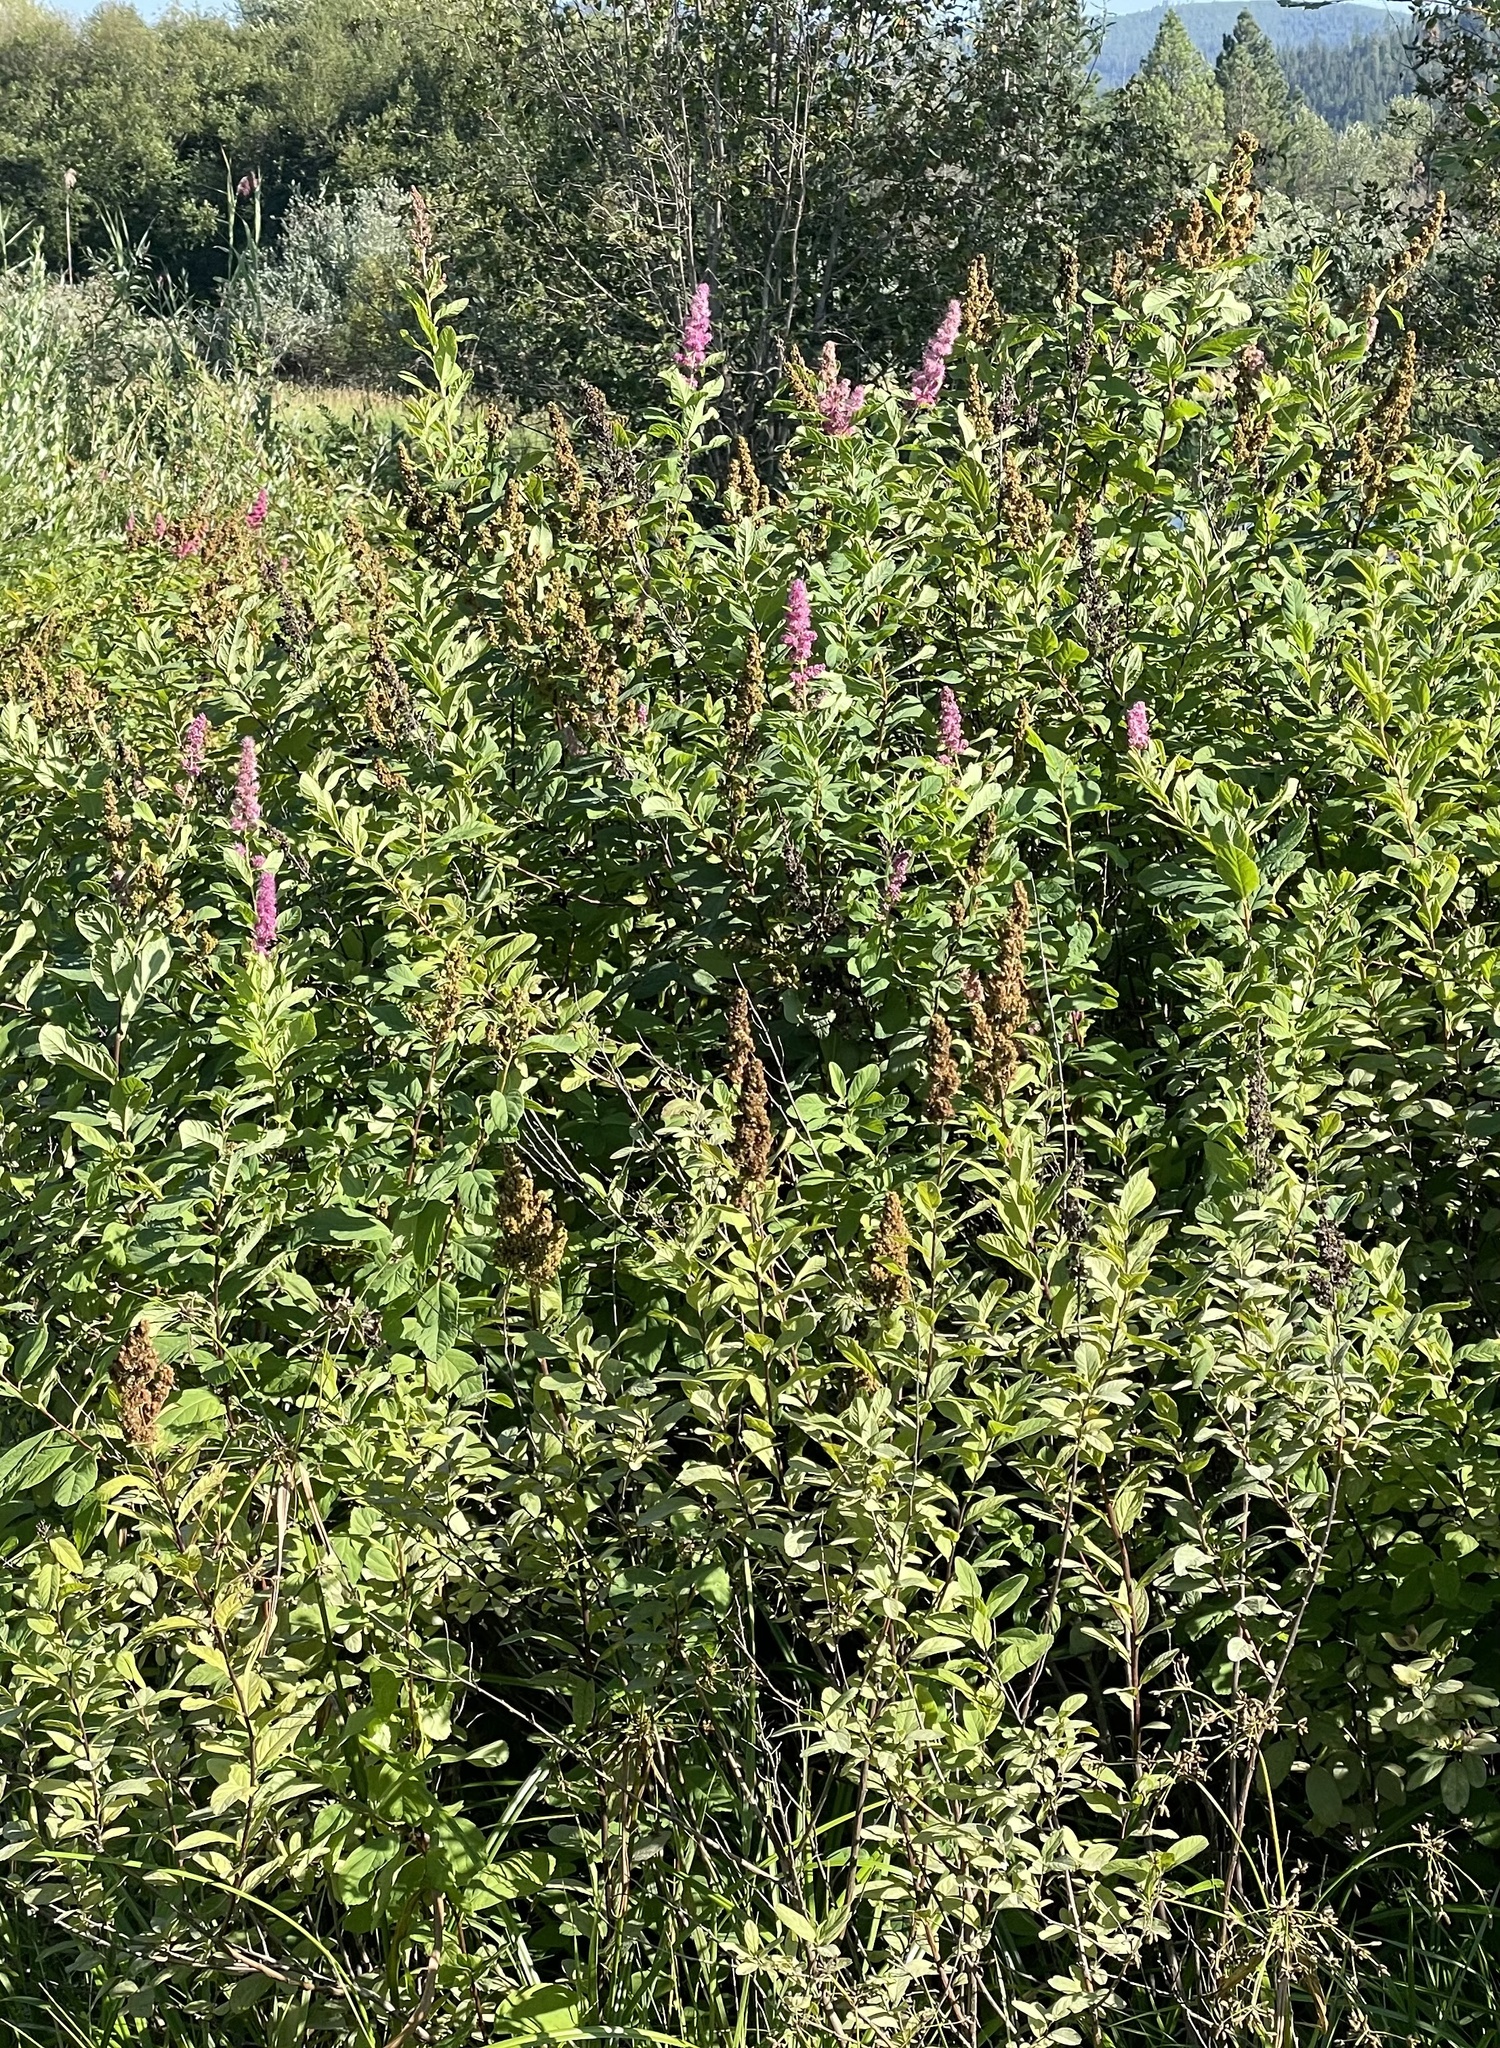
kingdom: Plantae
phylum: Tracheophyta
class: Magnoliopsida
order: Rosales
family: Rosaceae
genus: Spiraea
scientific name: Spiraea douglasii
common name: Steeplebush
